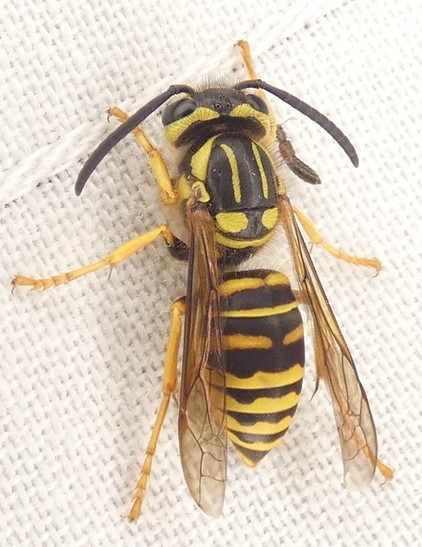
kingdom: Animalia
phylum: Arthropoda
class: Insecta
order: Hymenoptera
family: Vespidae
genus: Vespula
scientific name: Vespula squamosa
